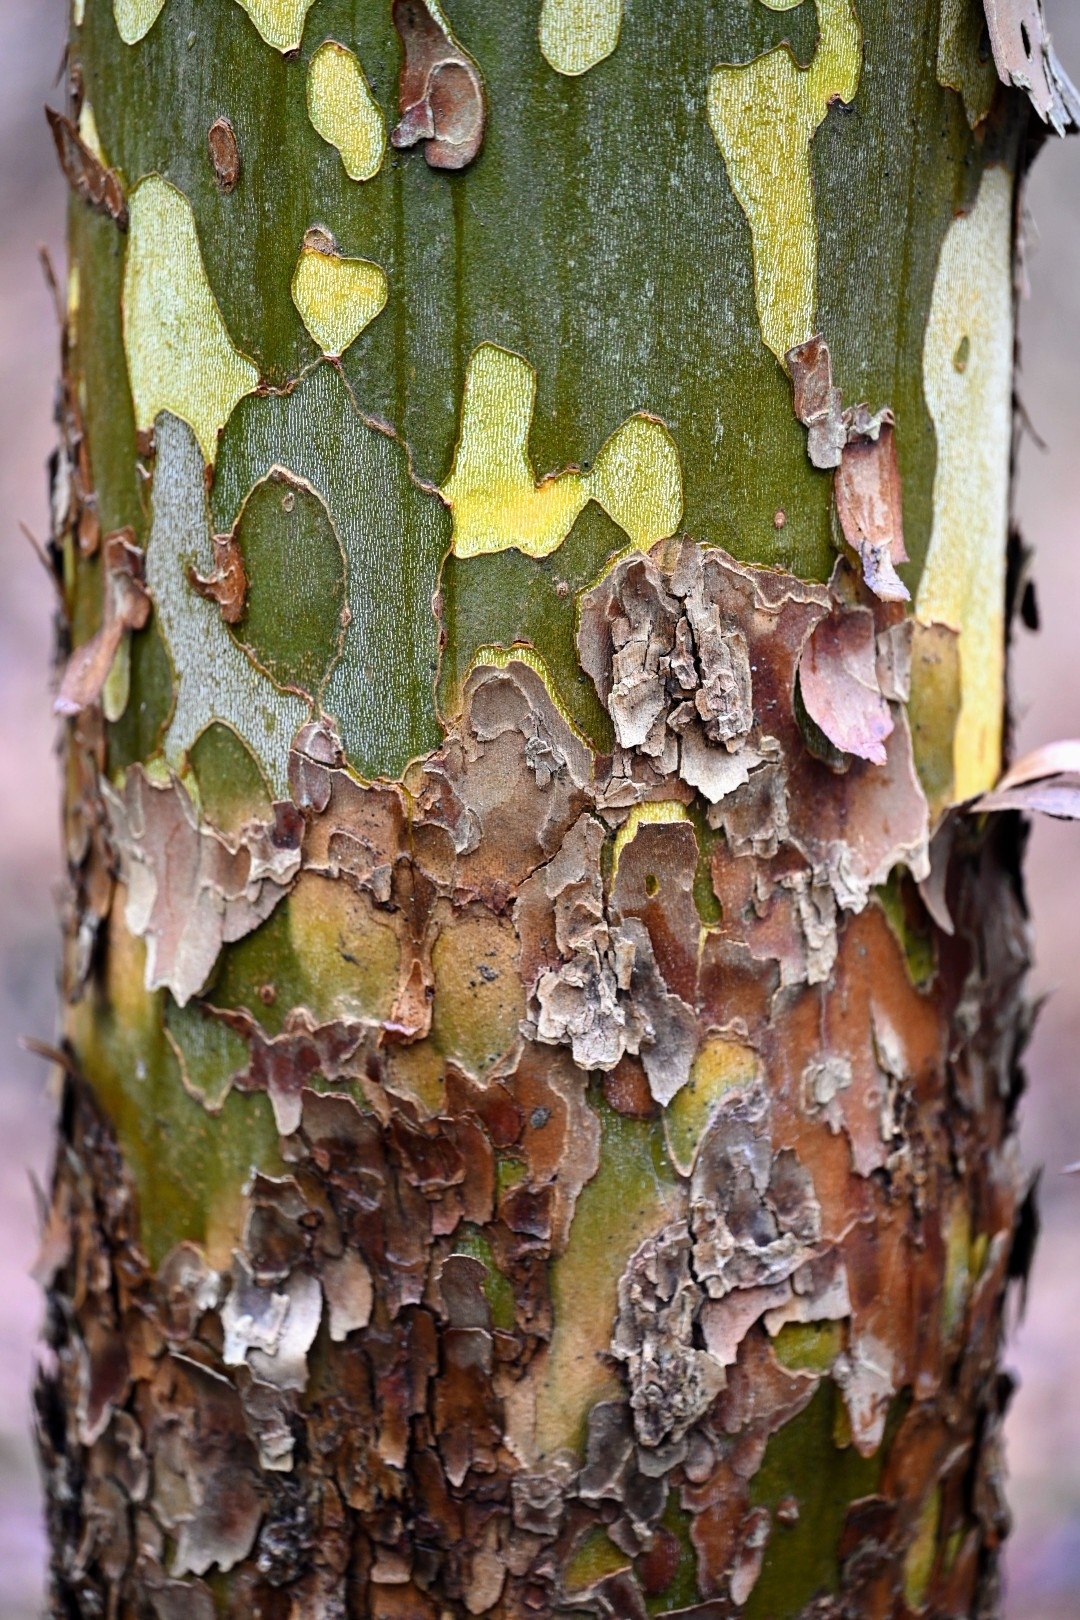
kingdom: Plantae
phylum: Tracheophyta
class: Magnoliopsida
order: Proteales
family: Platanaceae
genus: Platanus
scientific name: Platanus occidentalis
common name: American sycamore
